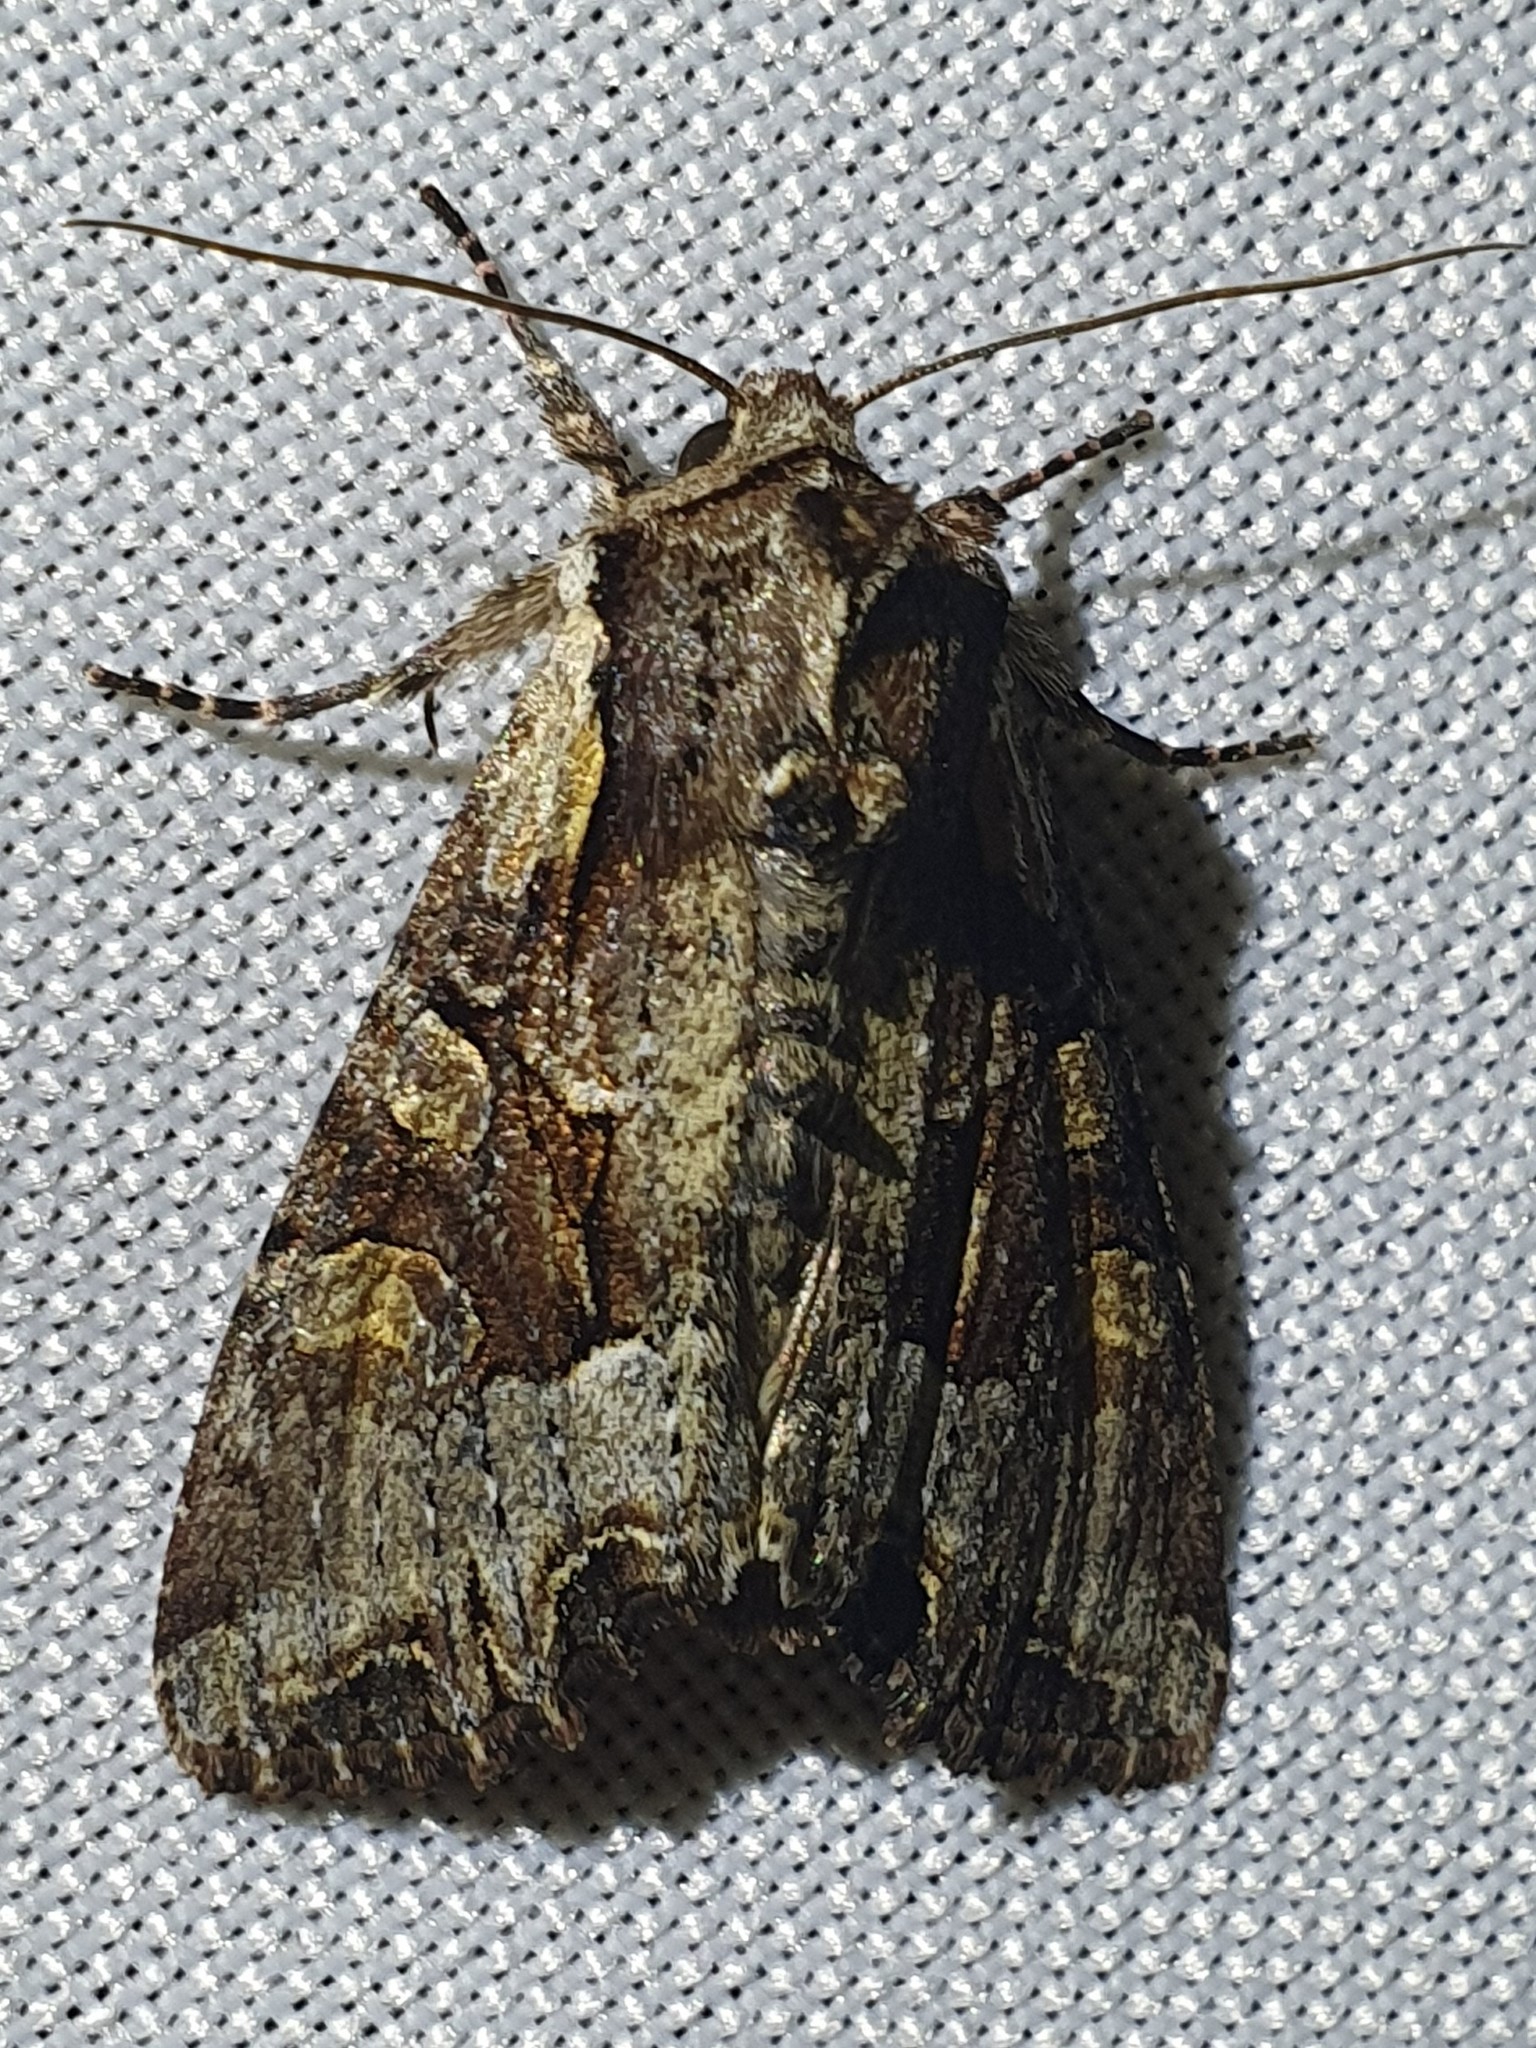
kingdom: Animalia
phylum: Arthropoda
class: Insecta
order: Lepidoptera
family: Noctuidae
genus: Lacanobia
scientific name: Lacanobia w-latinum
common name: Light brocade
